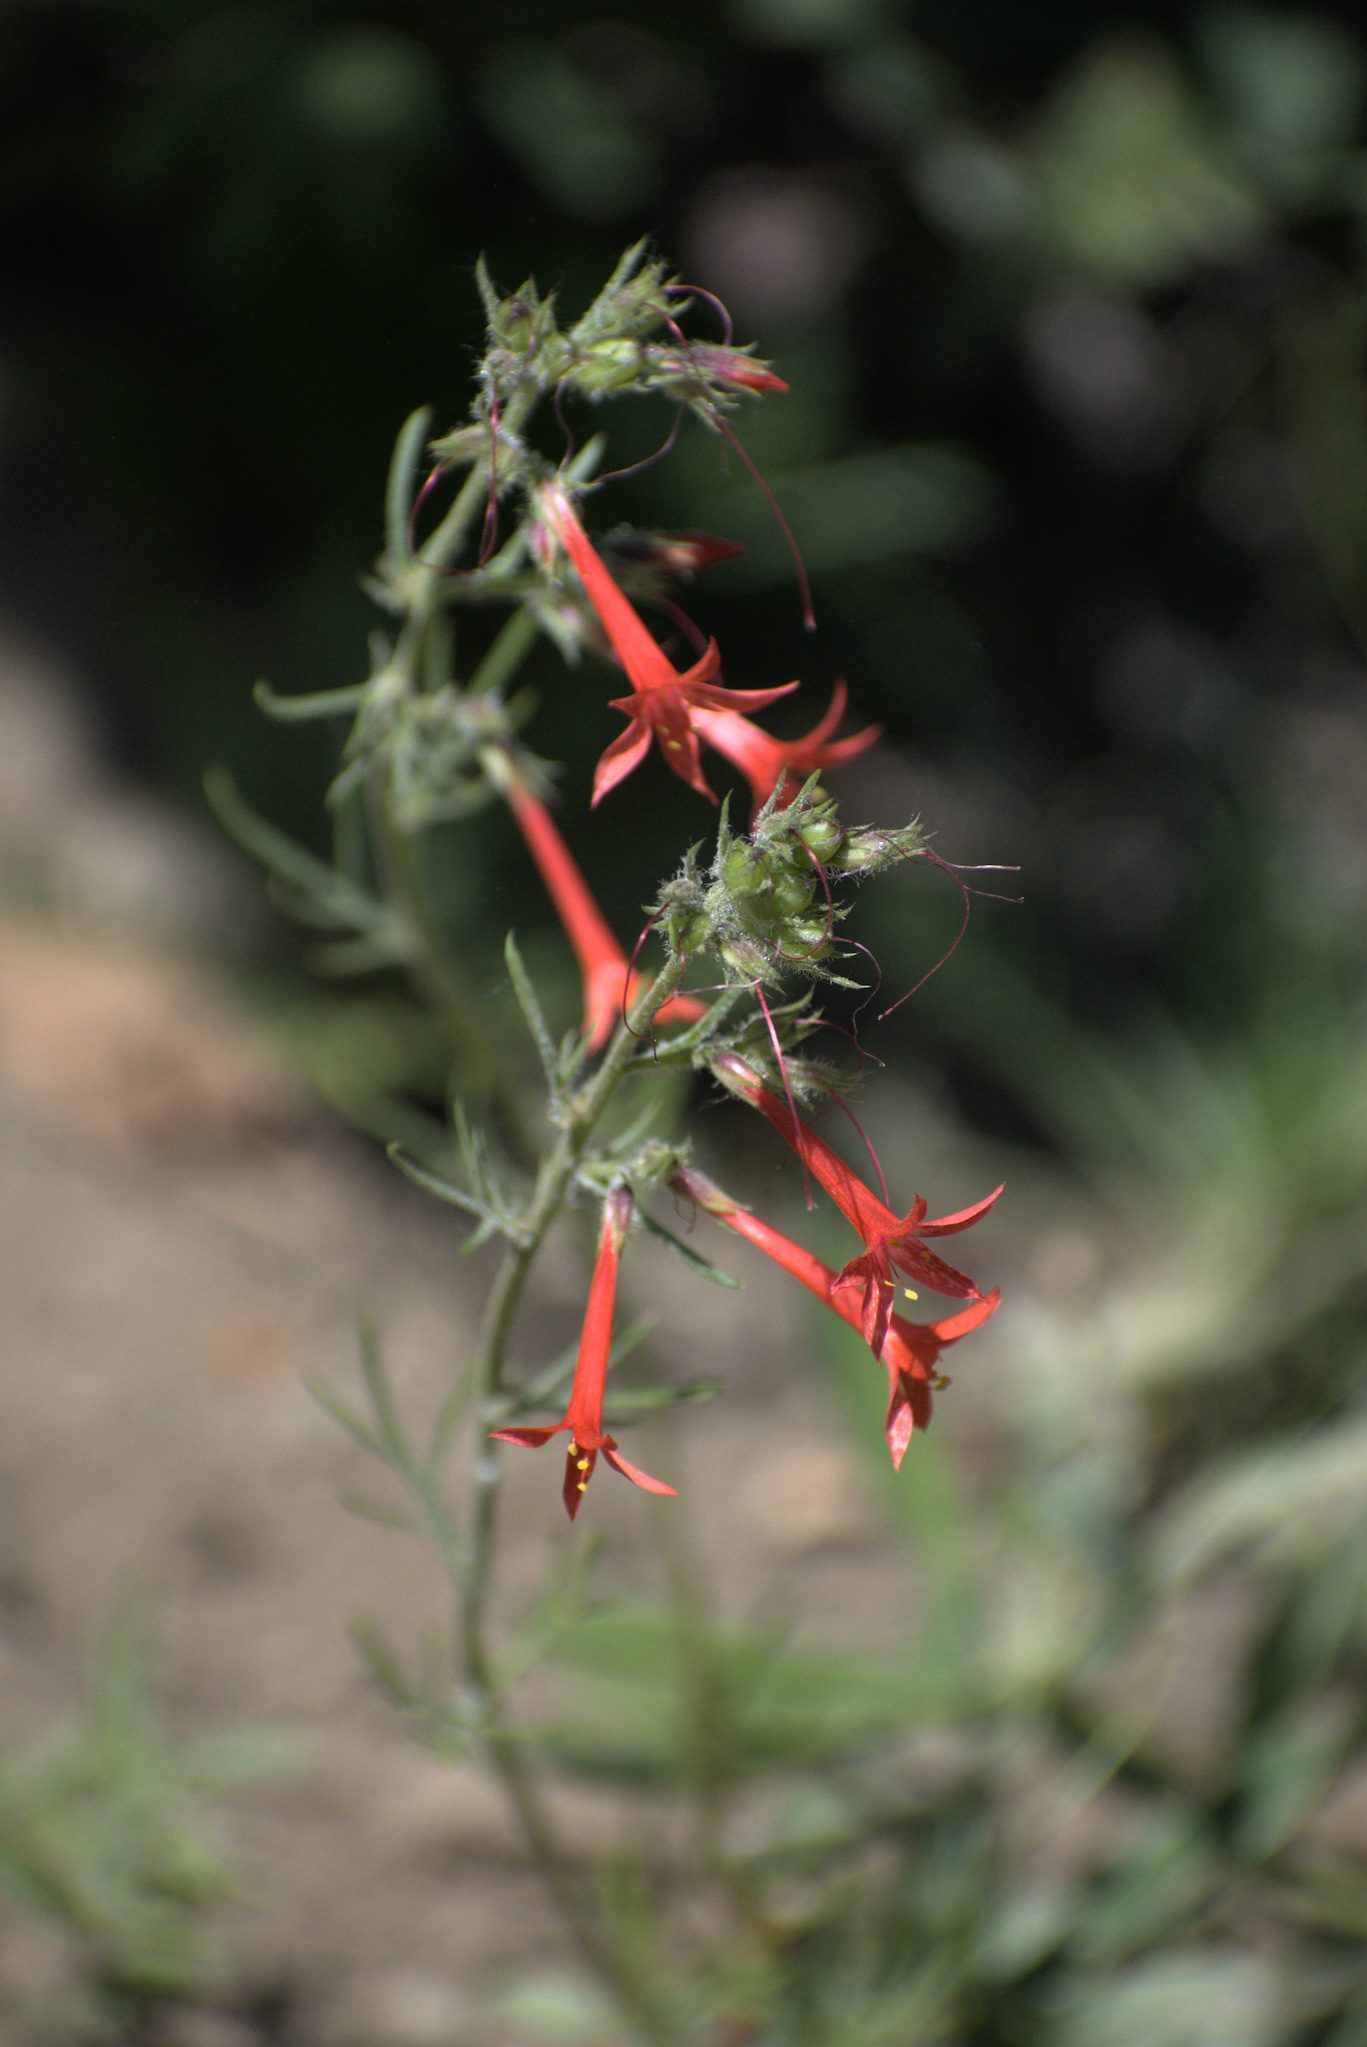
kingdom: Plantae
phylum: Tracheophyta
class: Magnoliopsida
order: Ericales
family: Polemoniaceae
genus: Ipomopsis
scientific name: Ipomopsis aggregata
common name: Scarlet gilia
